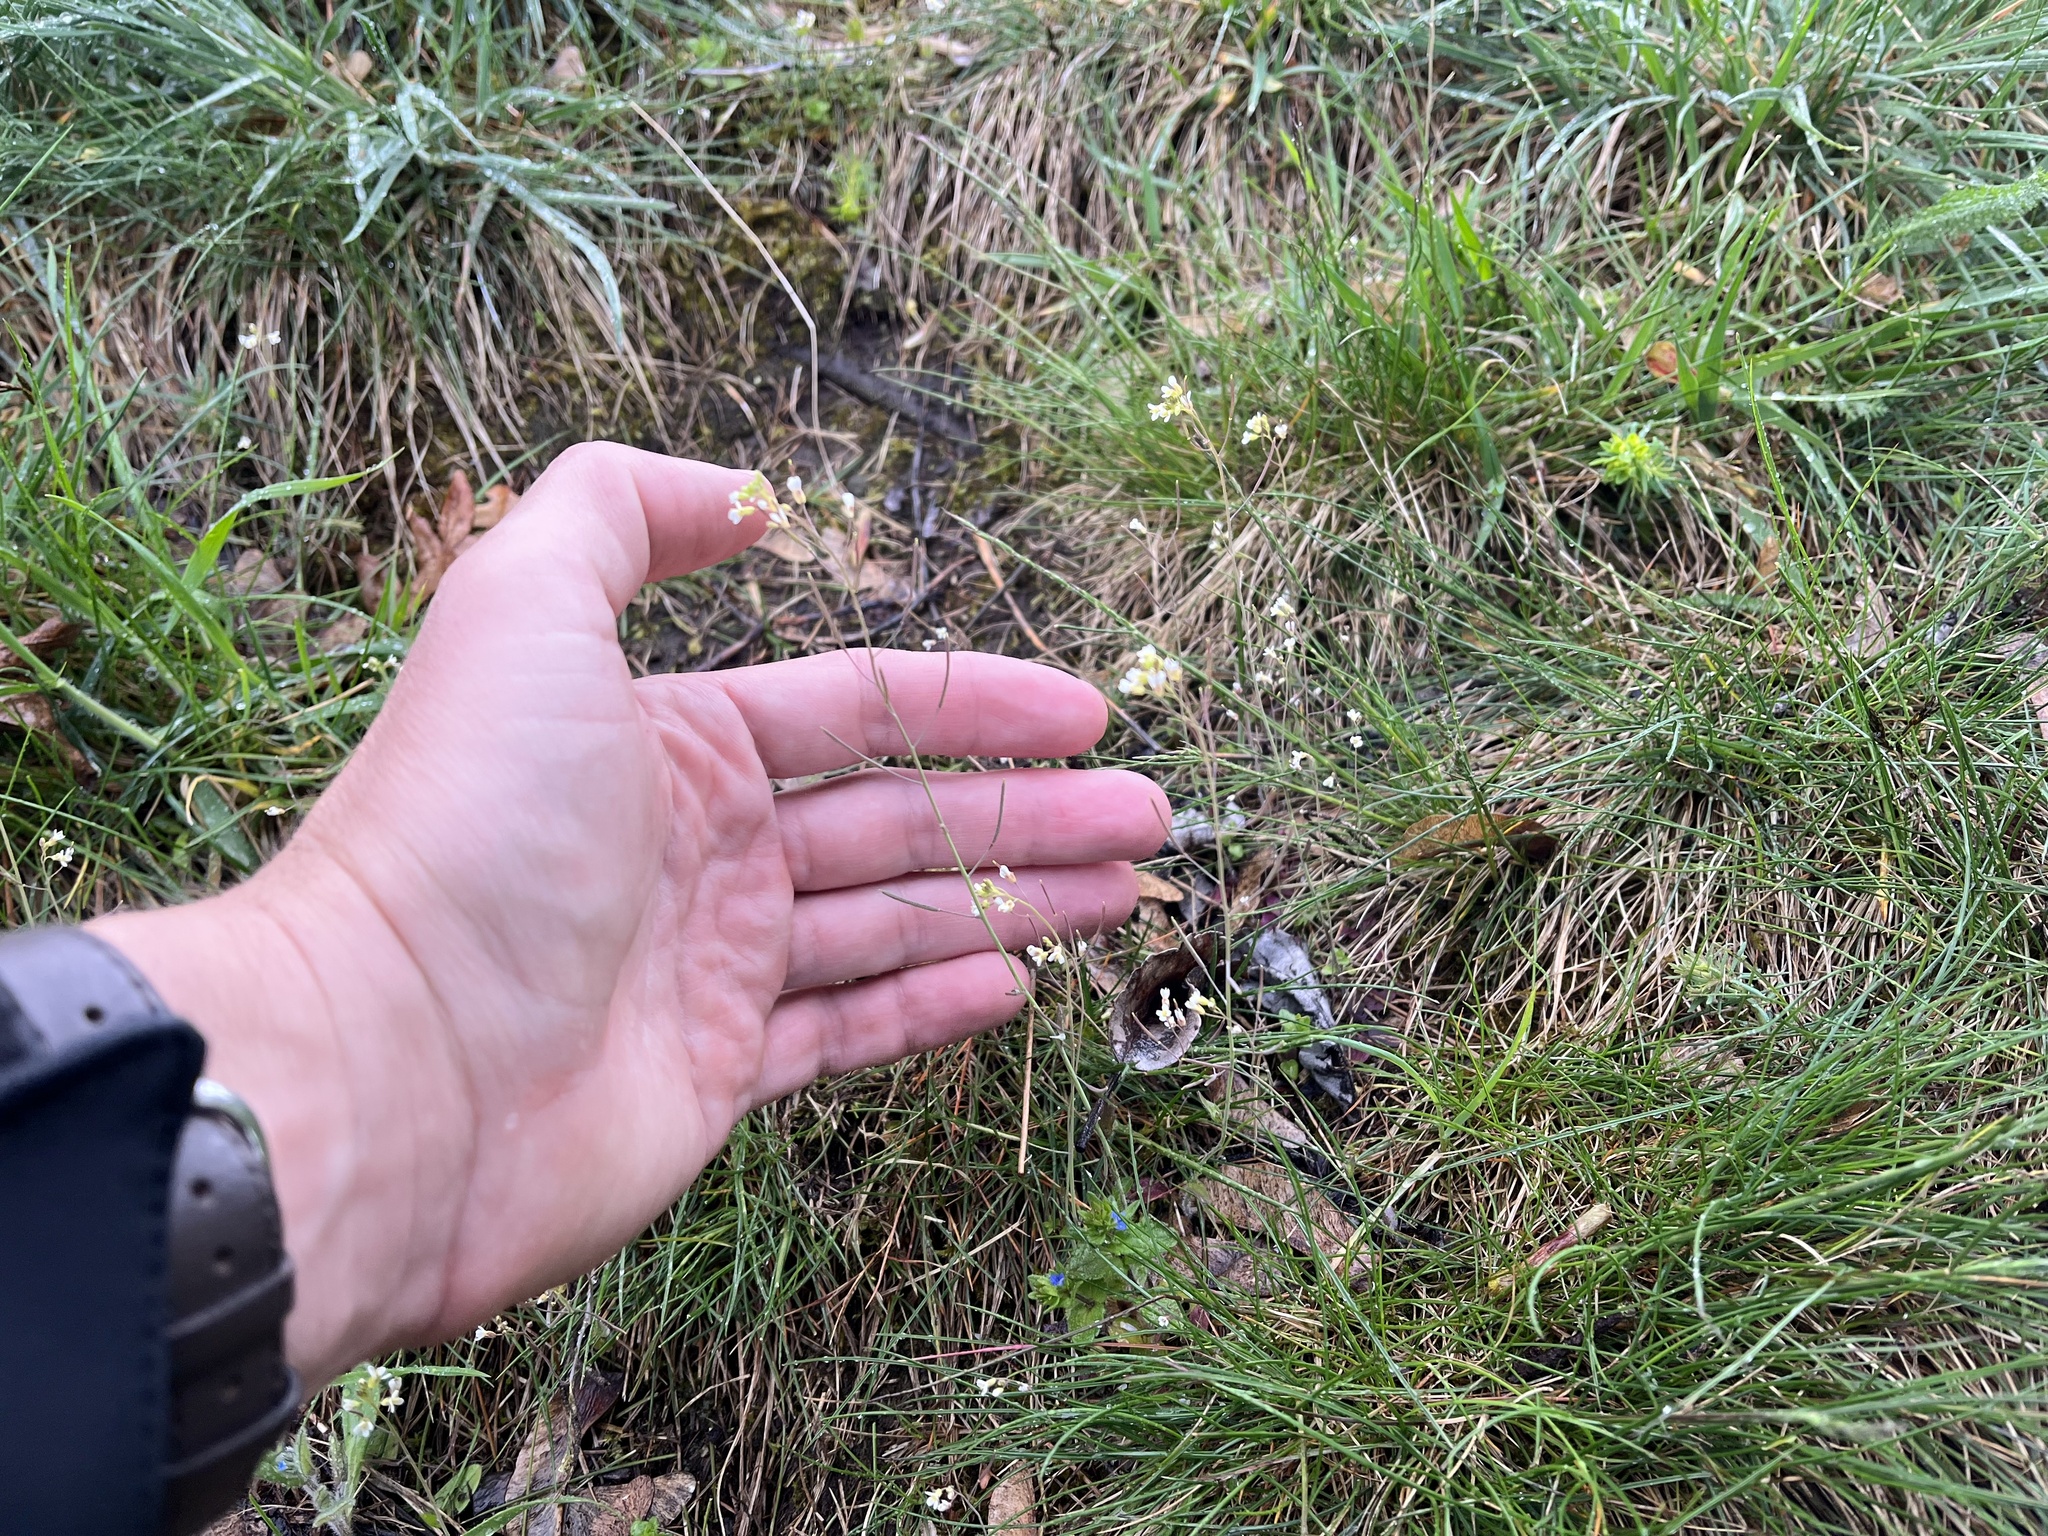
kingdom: Plantae
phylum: Tracheophyta
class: Magnoliopsida
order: Brassicales
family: Brassicaceae
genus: Arabidopsis
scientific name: Arabidopsis thaliana
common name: Thale cress
